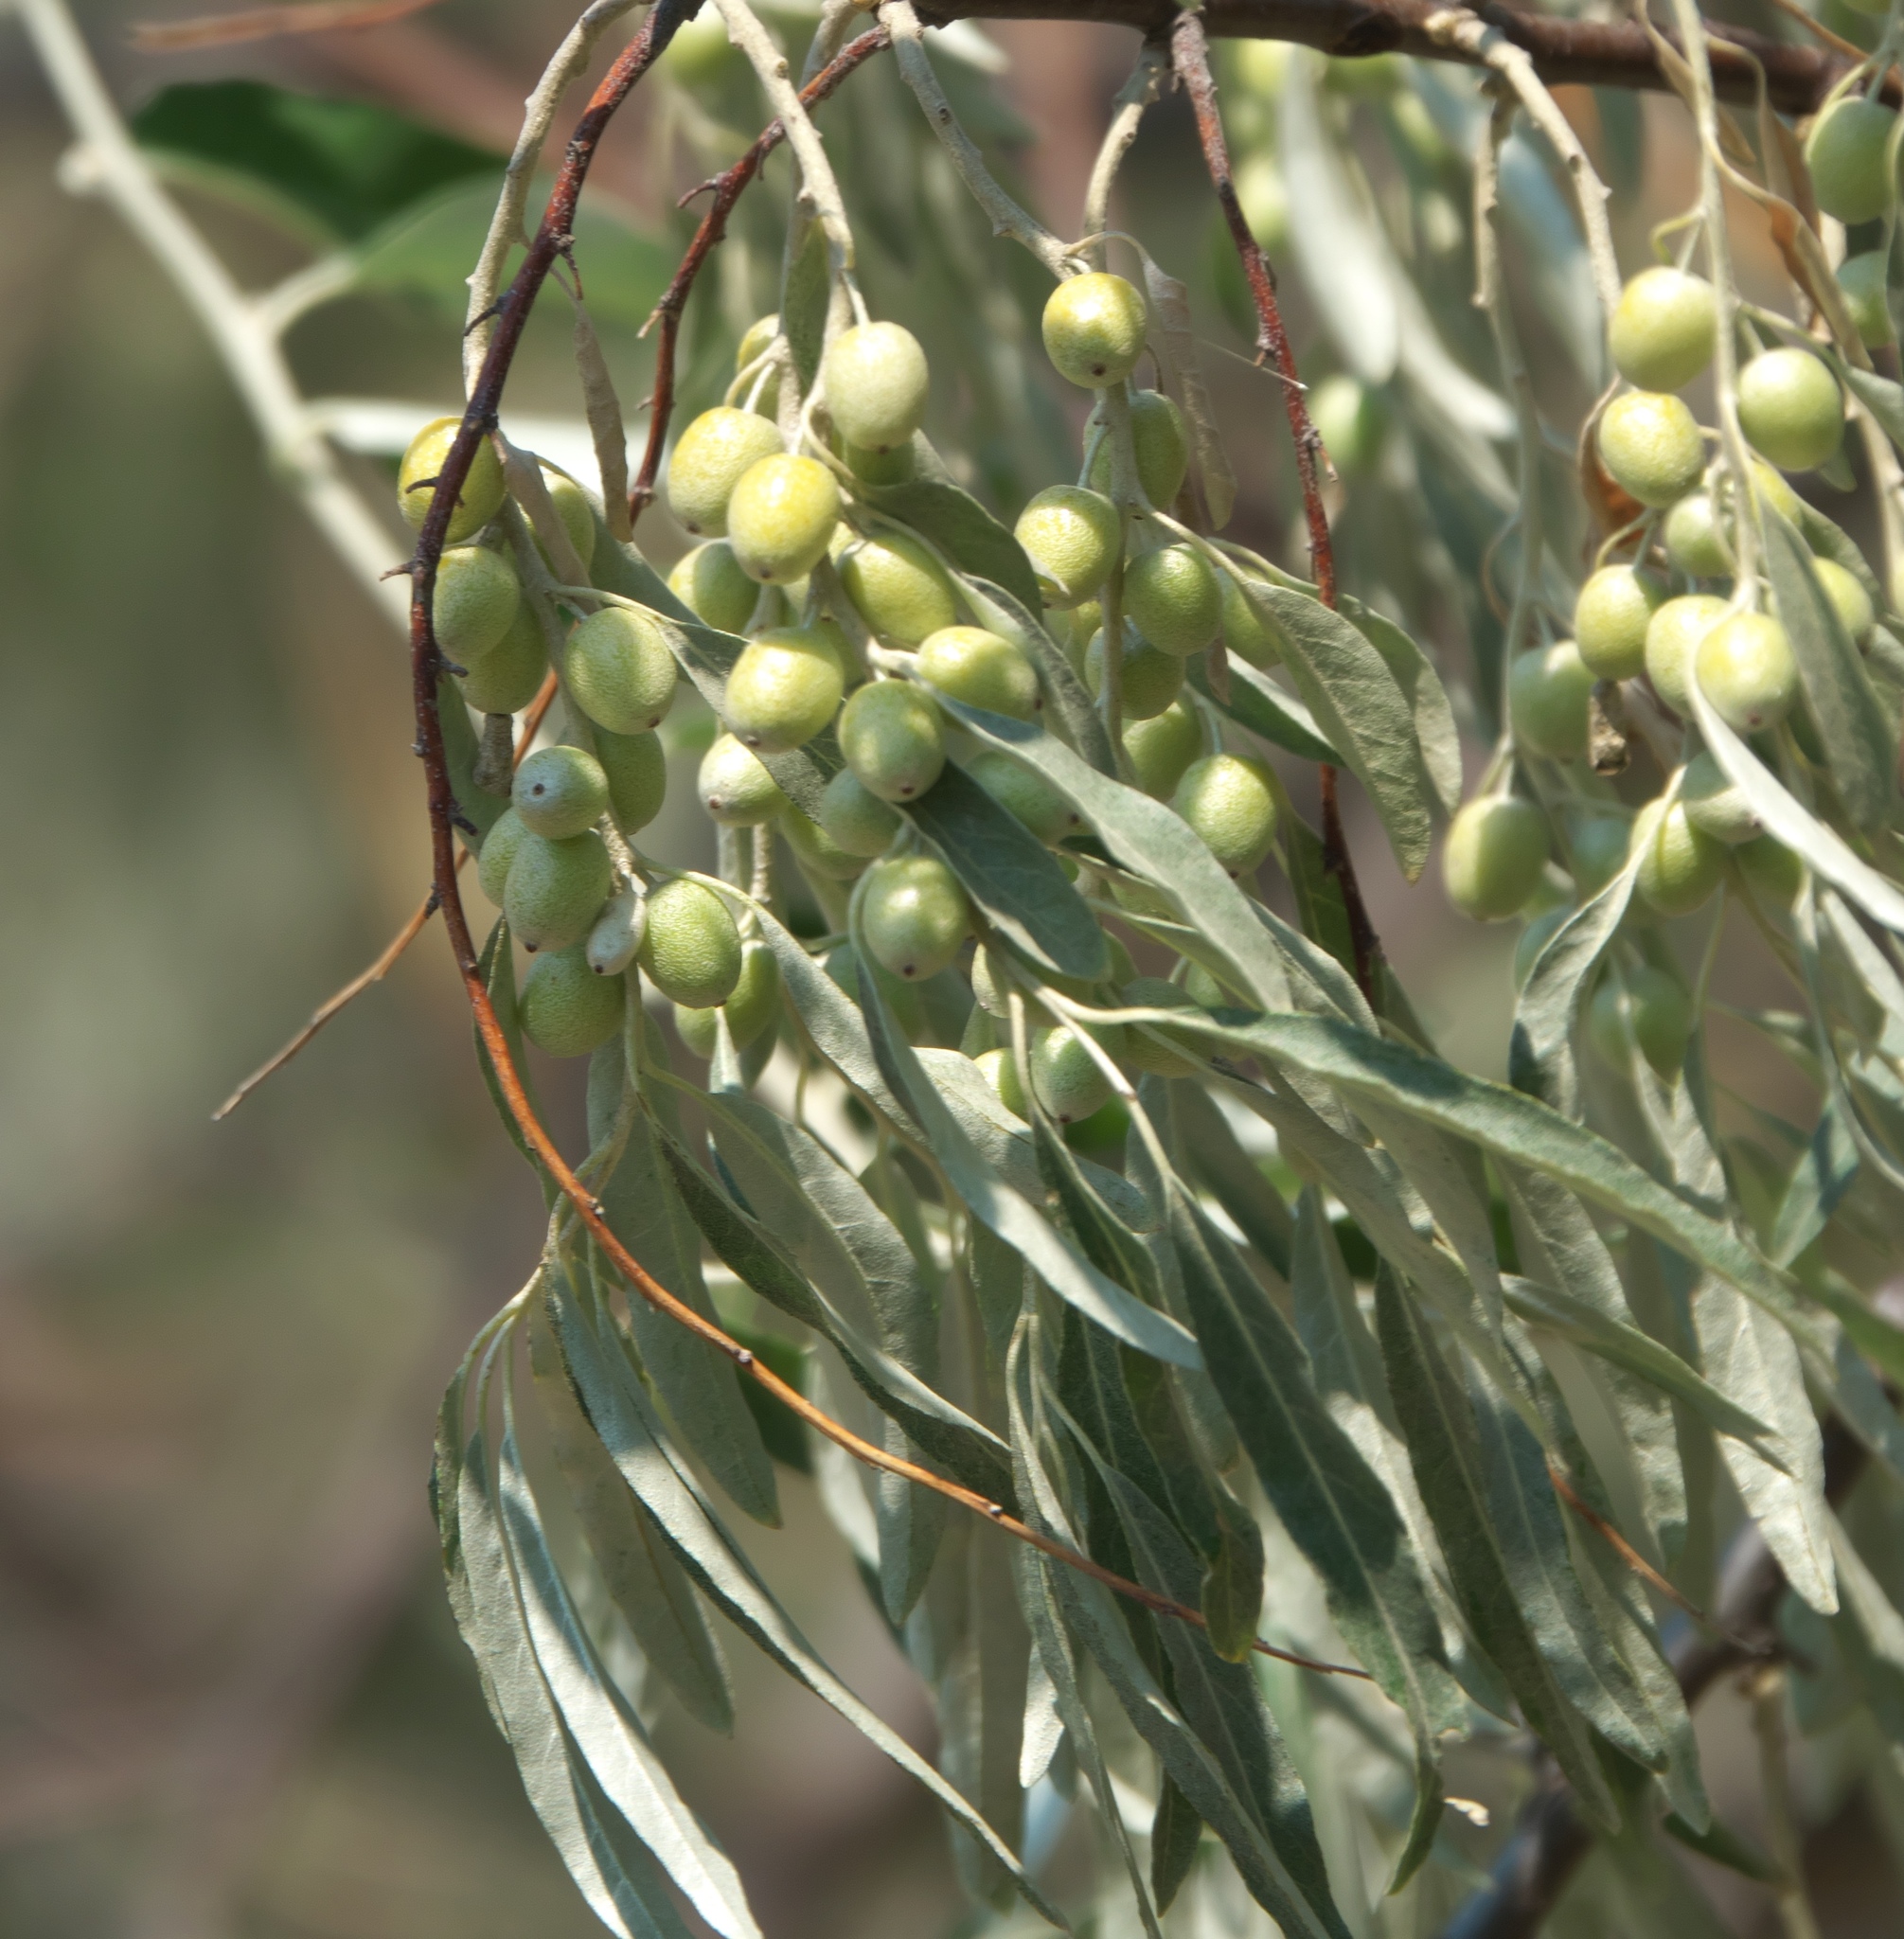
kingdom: Plantae
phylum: Tracheophyta
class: Magnoliopsida
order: Rosales
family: Elaeagnaceae
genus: Elaeagnus
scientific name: Elaeagnus angustifolia
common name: Russian olive
